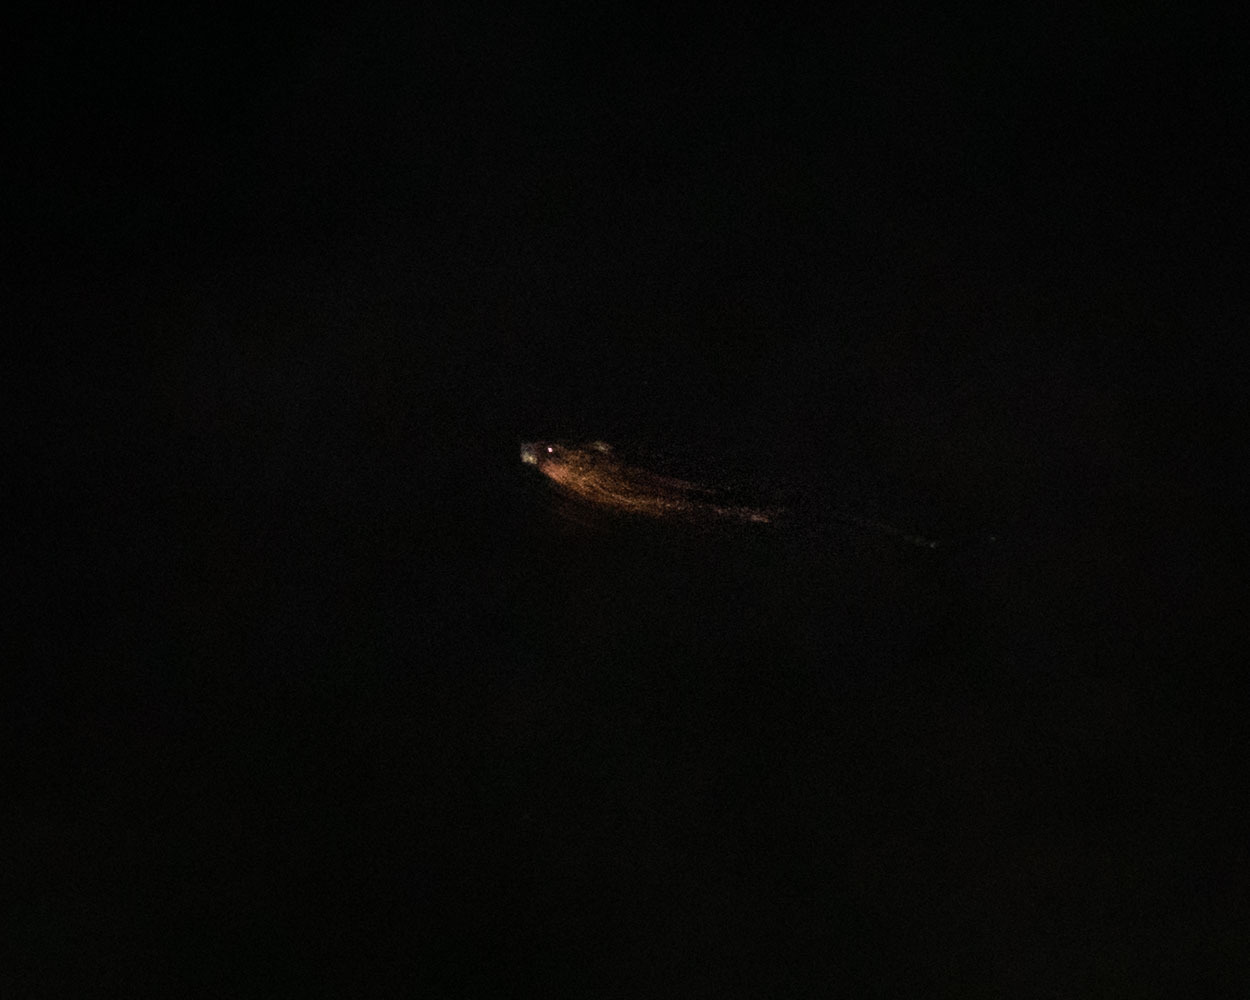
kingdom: Animalia
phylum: Chordata
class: Mammalia
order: Rodentia
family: Cricetidae
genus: Ondatra
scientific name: Ondatra zibethicus
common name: Muskrat
